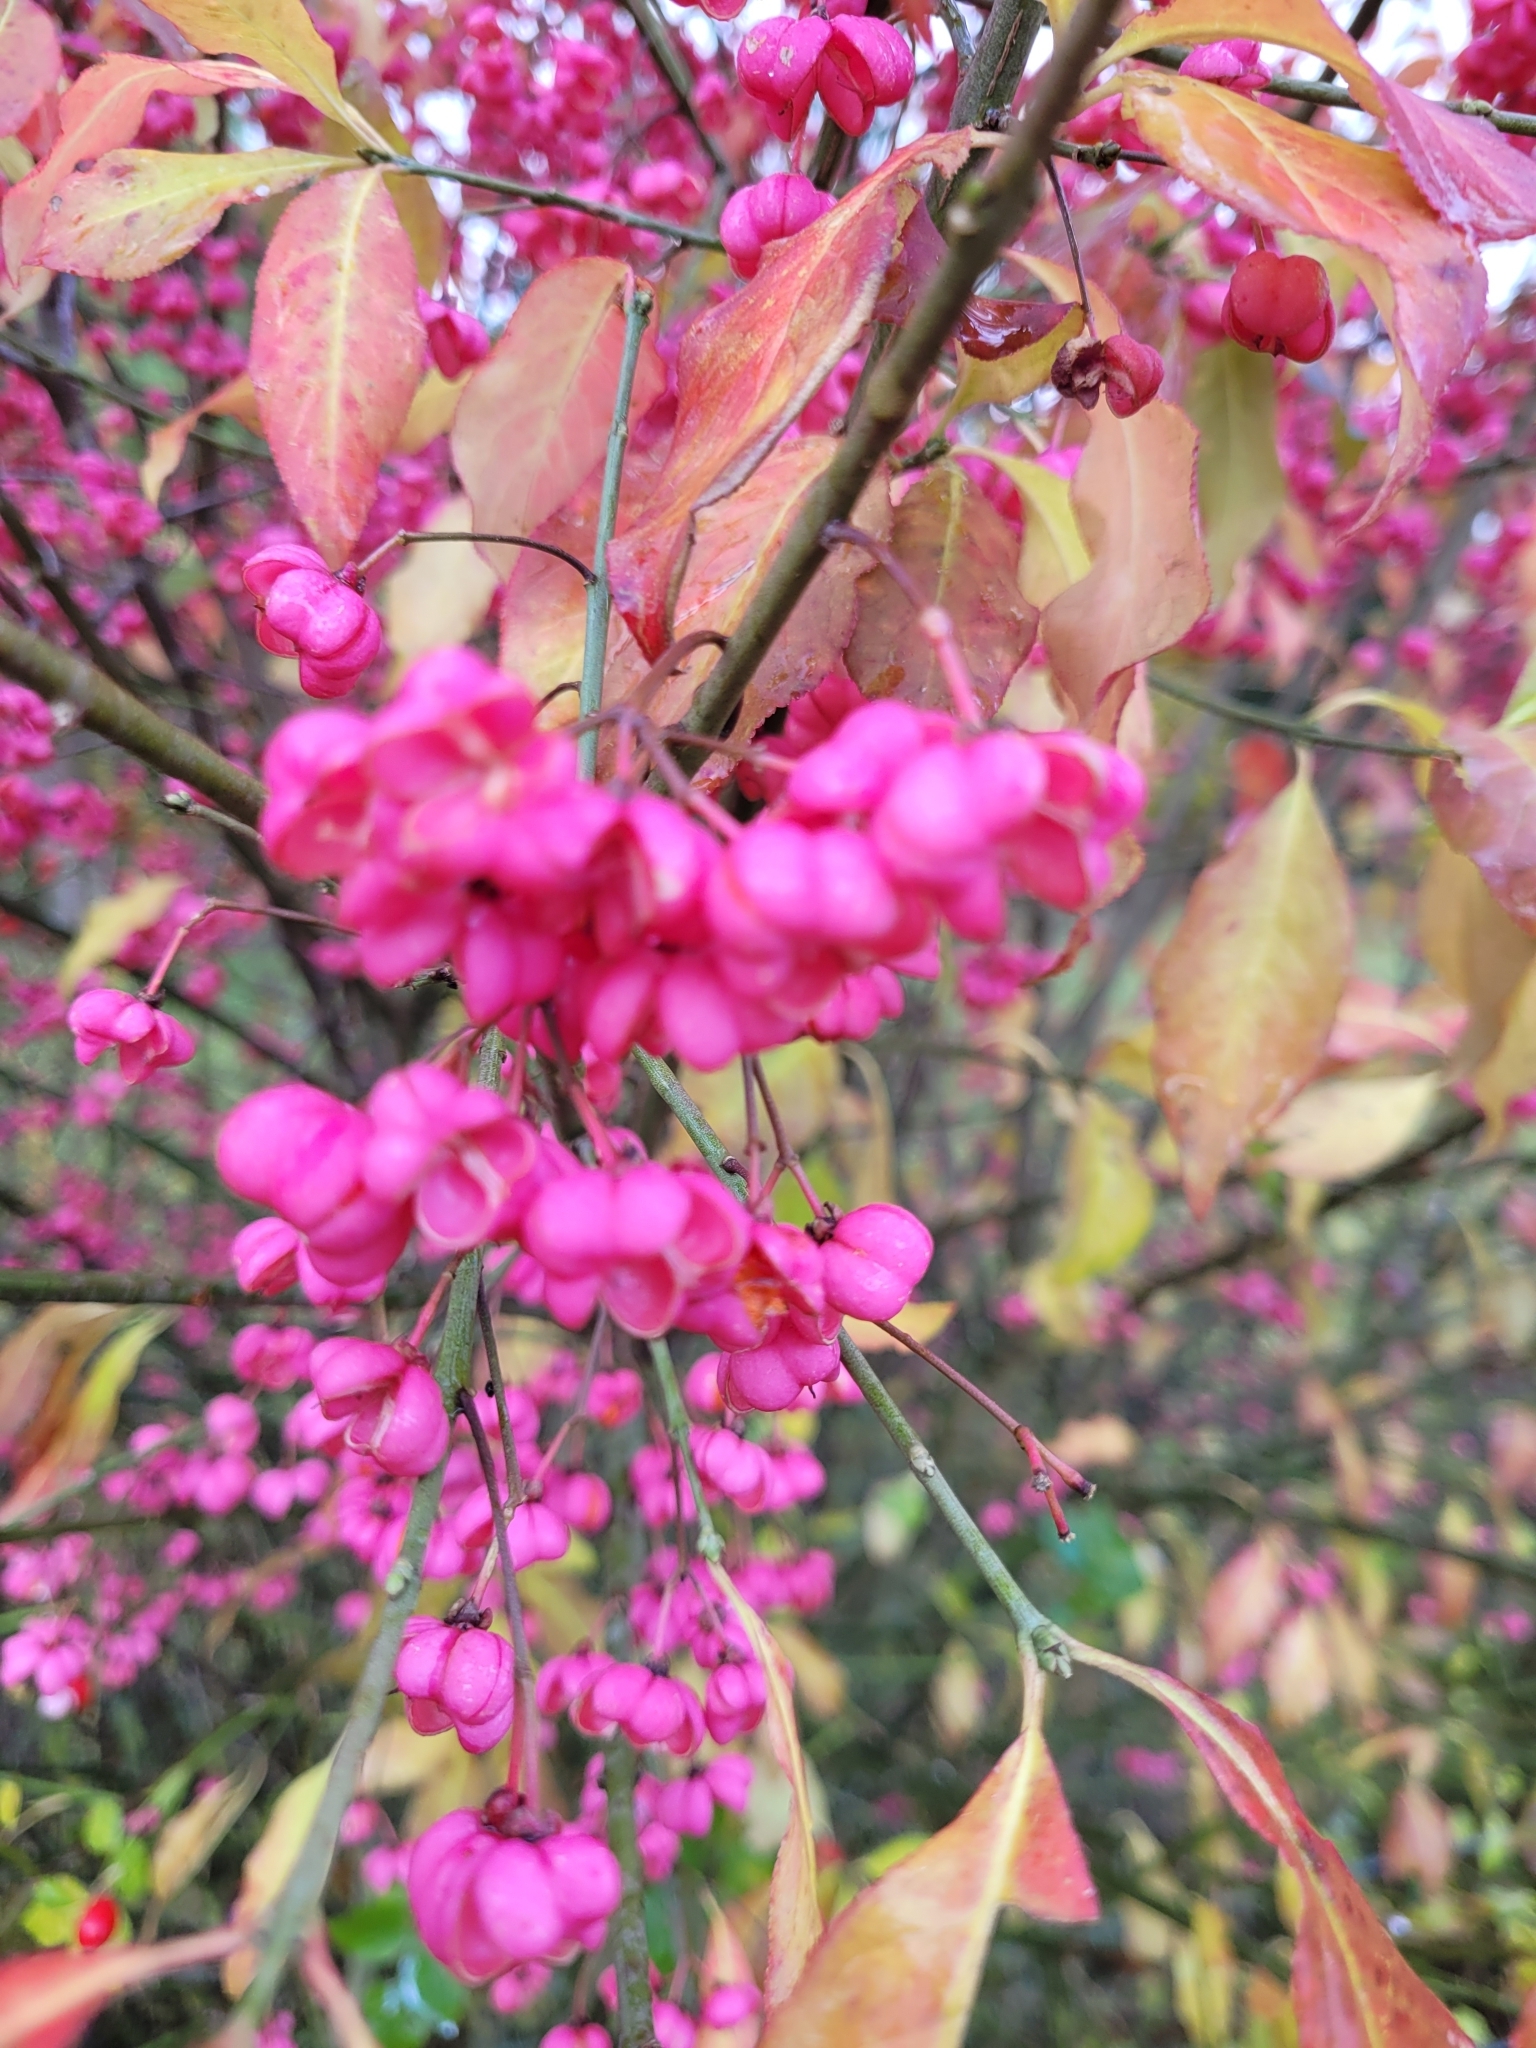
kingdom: Plantae
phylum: Tracheophyta
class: Magnoliopsida
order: Celastrales
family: Celastraceae
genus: Euonymus
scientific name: Euonymus europaeus
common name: Spindle
